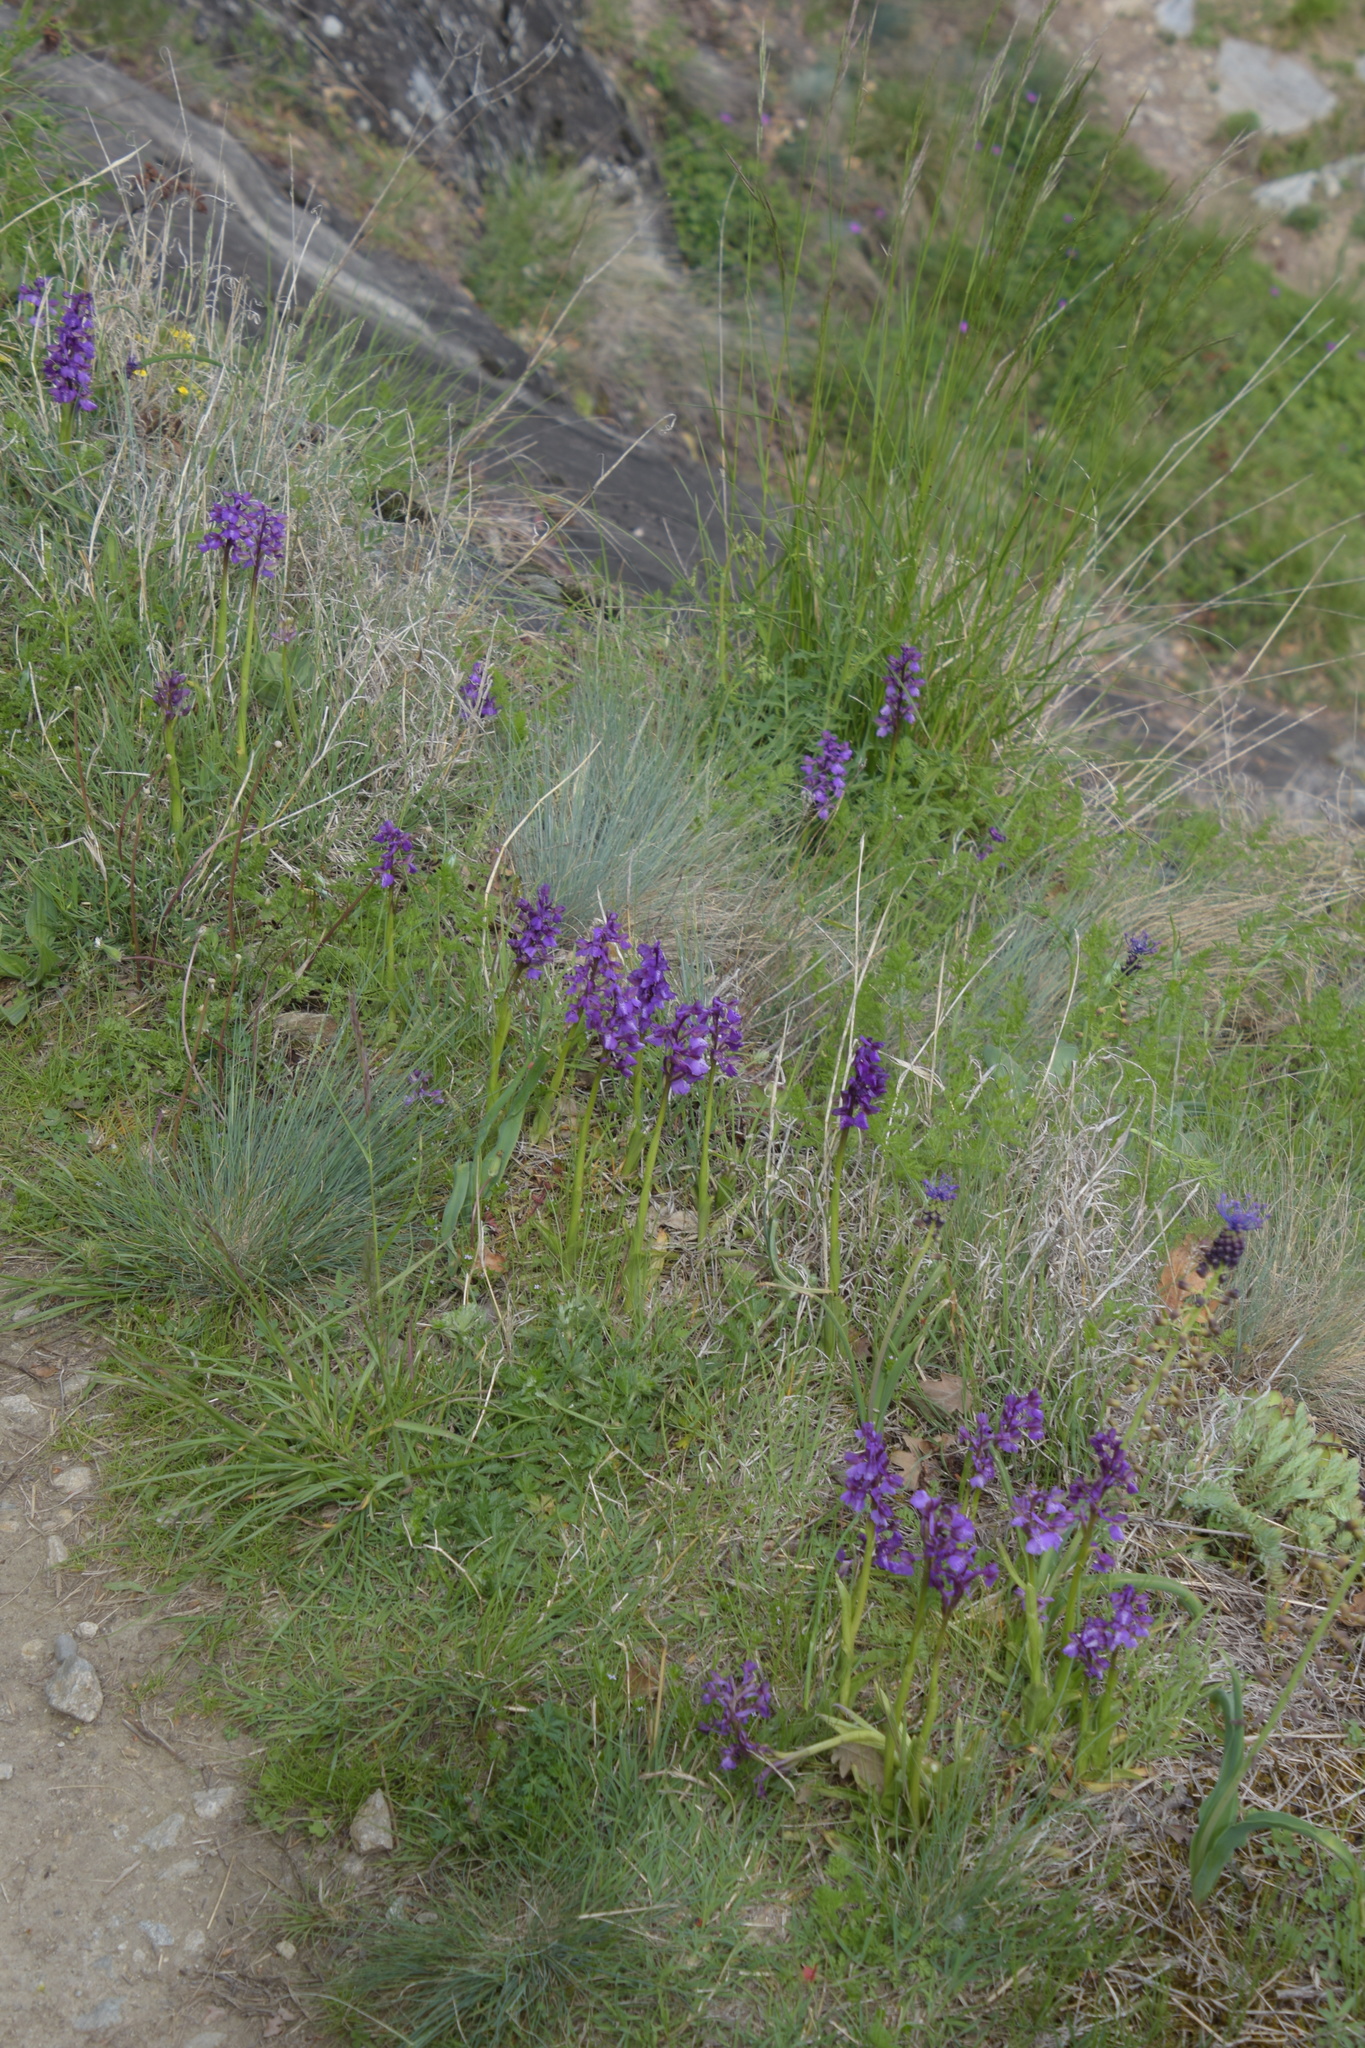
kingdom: Plantae
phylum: Tracheophyta
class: Liliopsida
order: Asparagales
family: Orchidaceae
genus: Anacamptis
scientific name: Anacamptis morio
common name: Green-winged orchid
